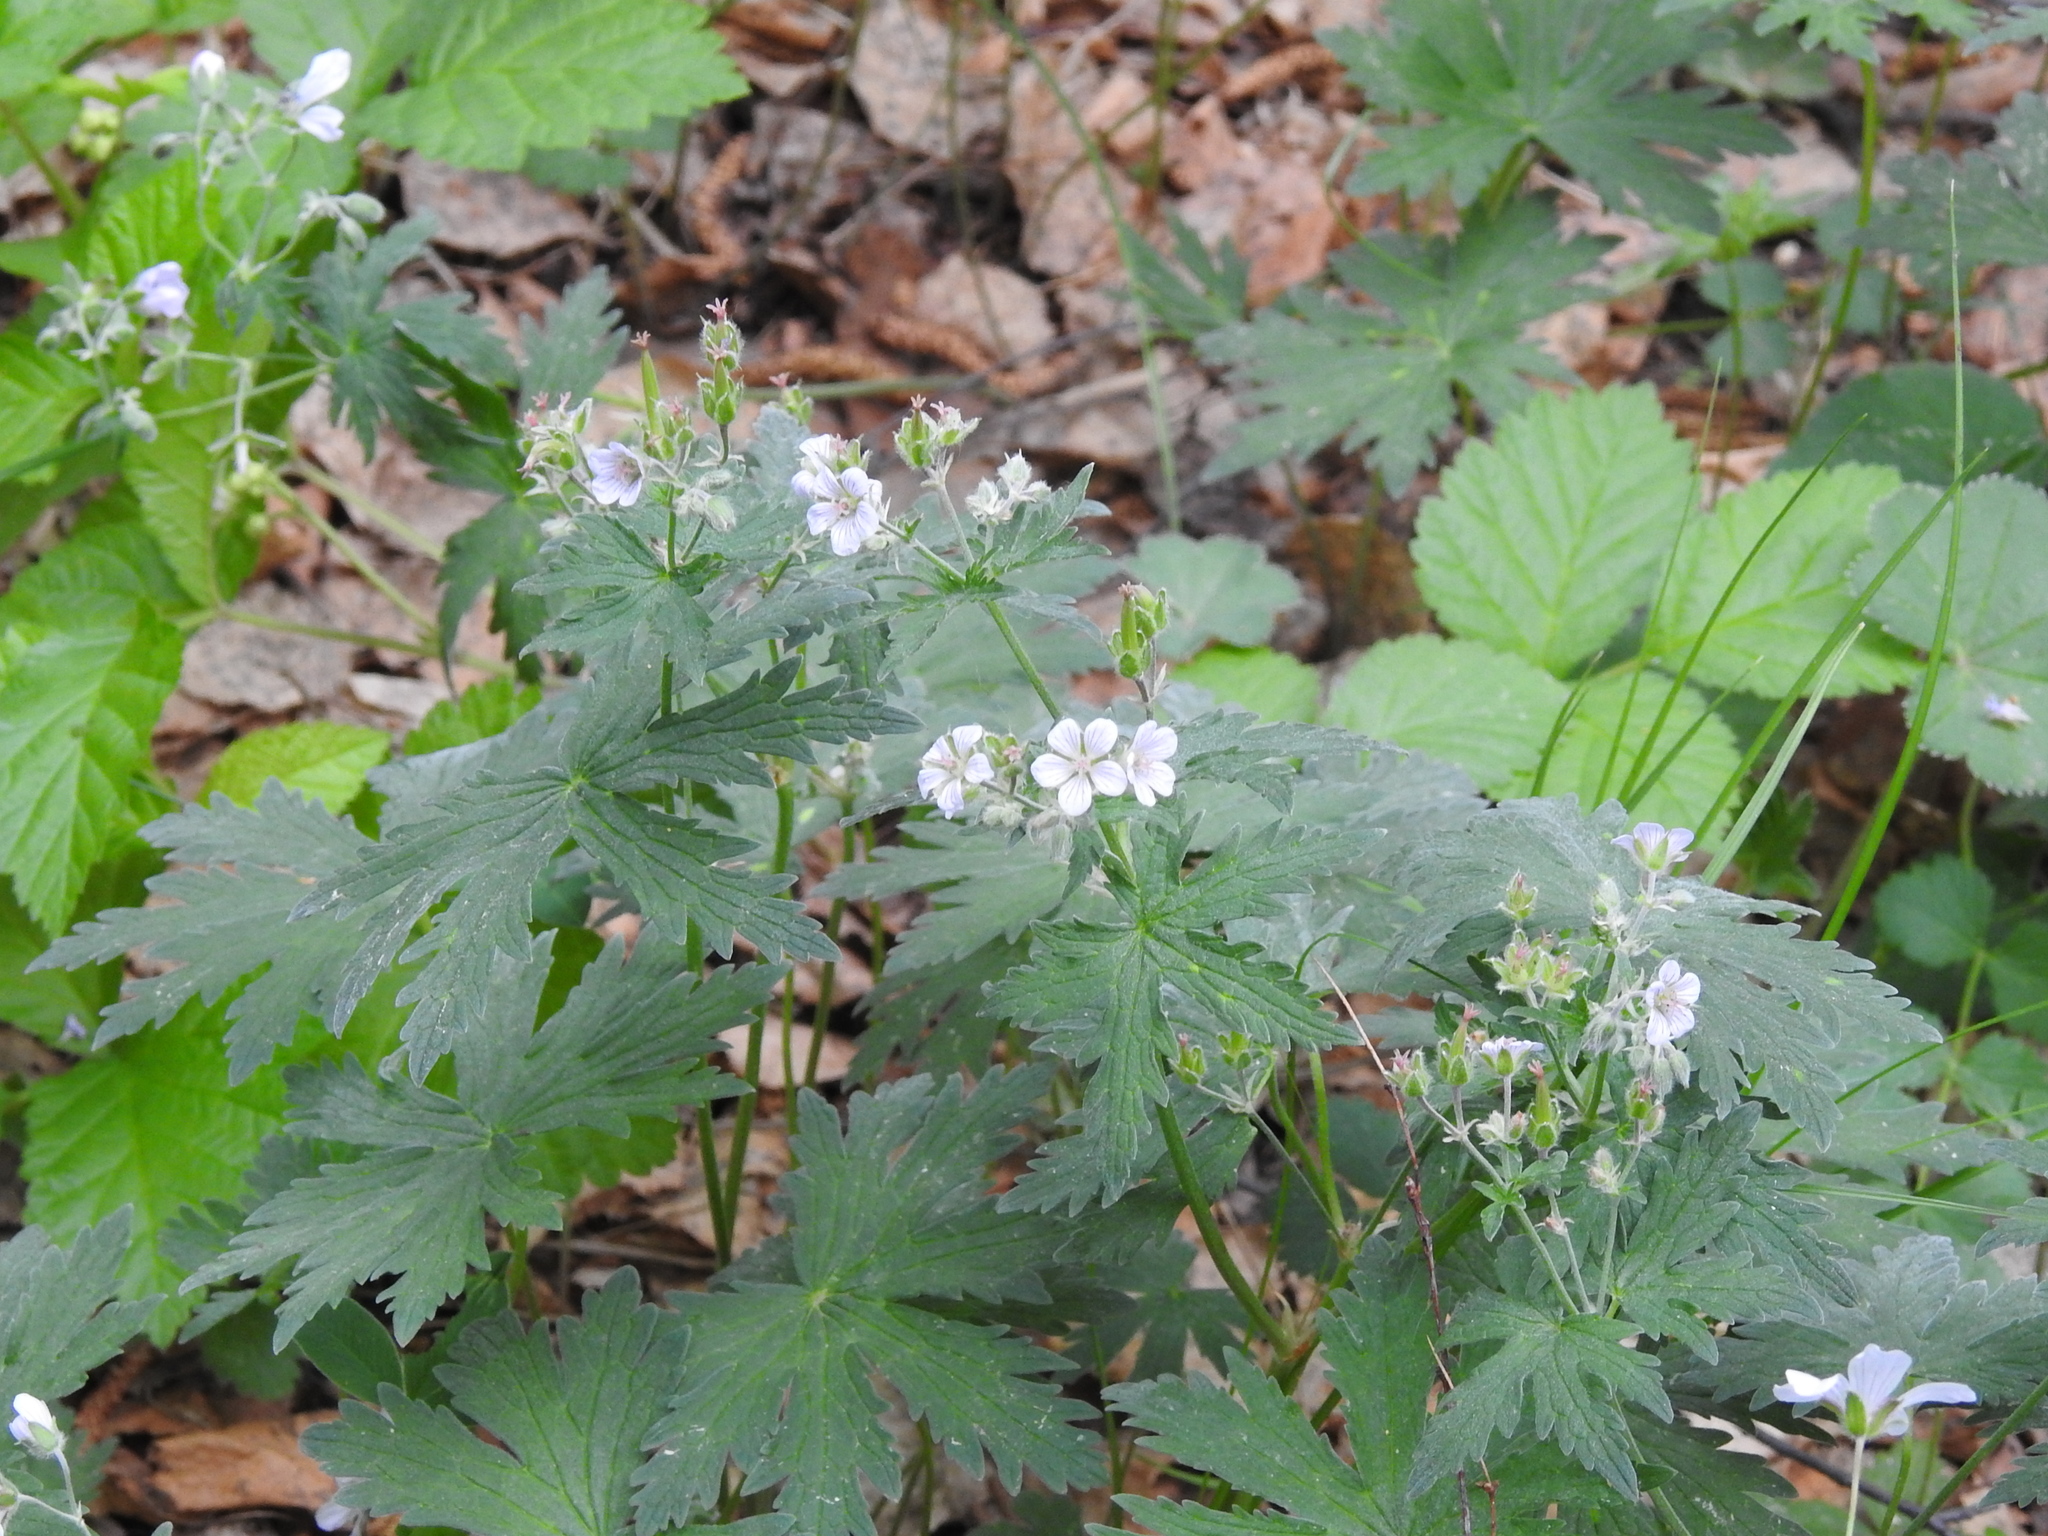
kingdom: Plantae
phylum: Tracheophyta
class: Magnoliopsida
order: Geraniales
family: Geraniaceae
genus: Geranium
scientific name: Geranium pseudosibiricum
